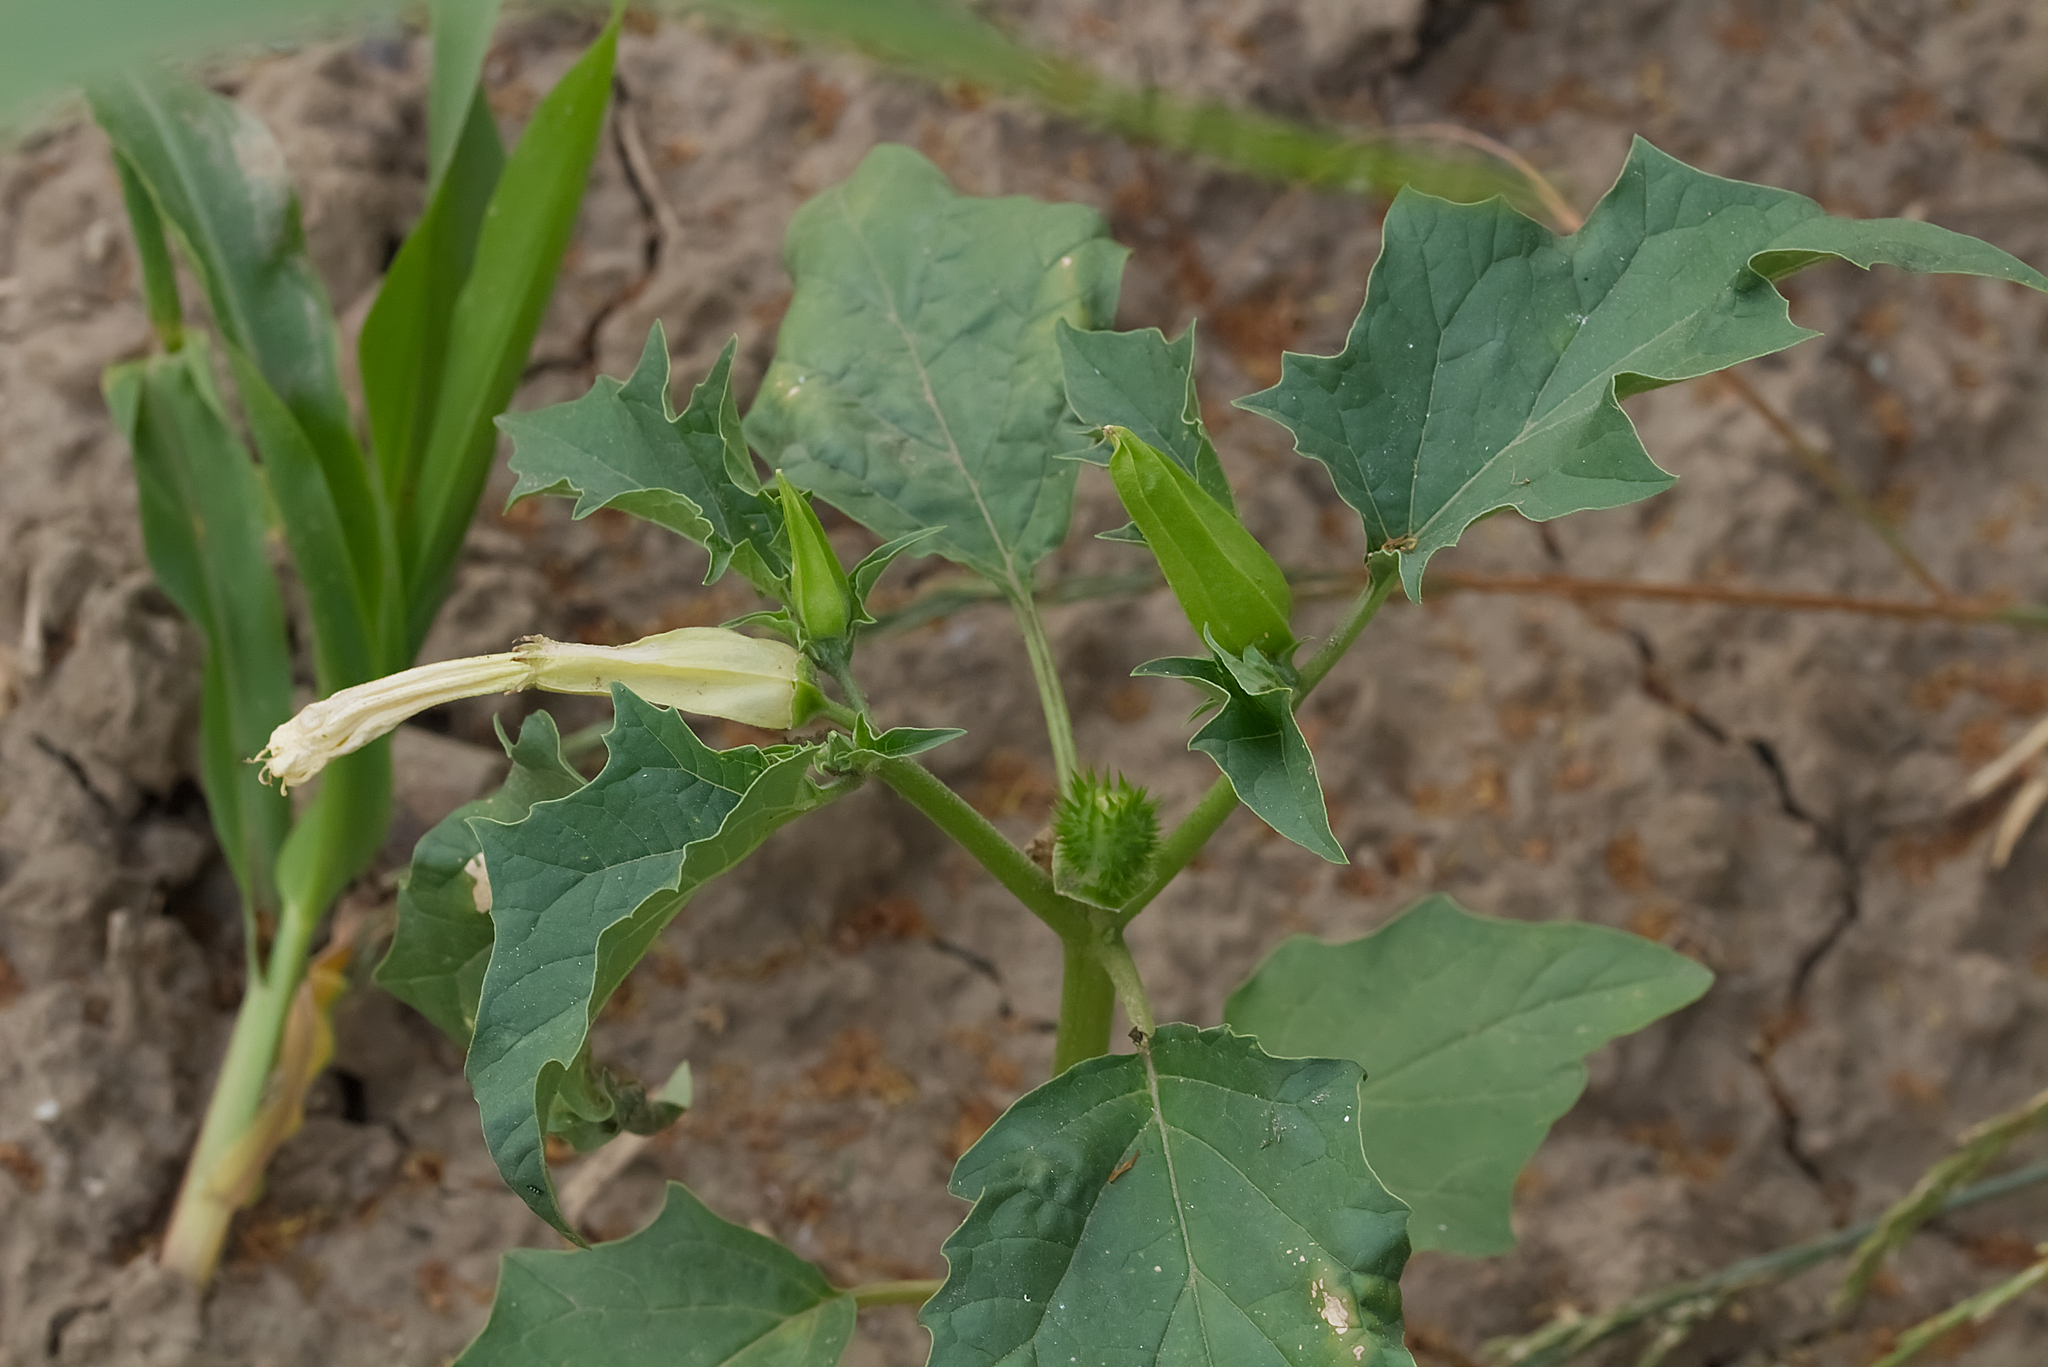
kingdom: Plantae
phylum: Tracheophyta
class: Magnoliopsida
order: Solanales
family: Solanaceae
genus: Datura
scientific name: Datura stramonium
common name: Thorn-apple
